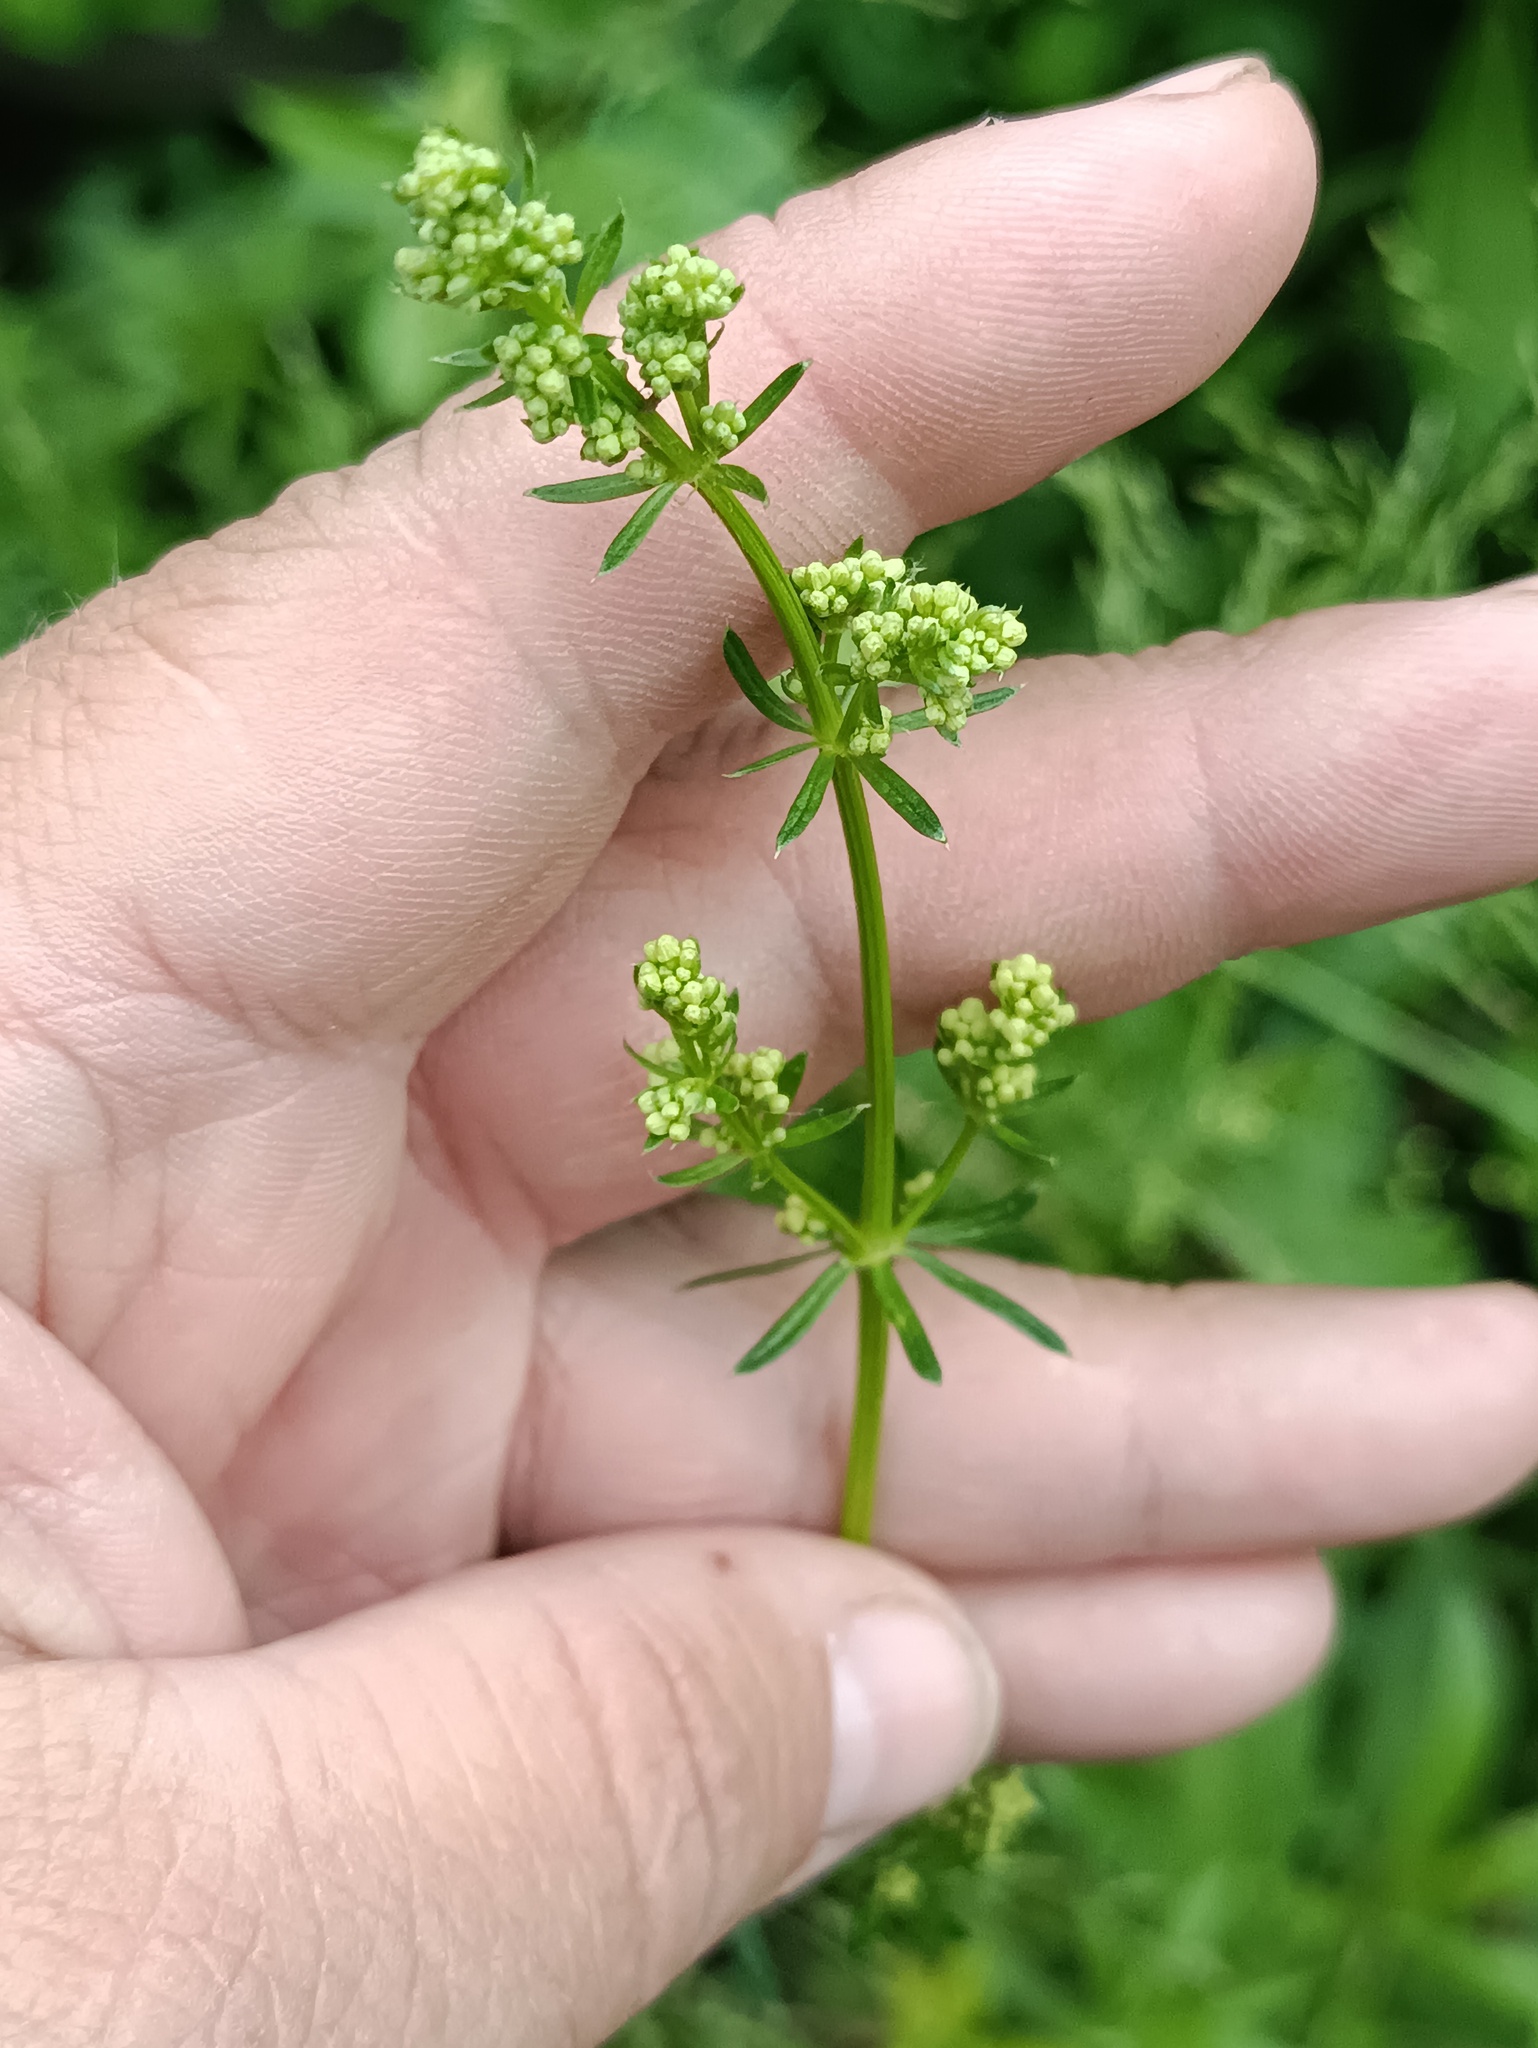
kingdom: Plantae
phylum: Tracheophyta
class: Magnoliopsida
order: Gentianales
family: Rubiaceae
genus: Galium
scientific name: Galium mollugo
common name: Hedge bedstraw
